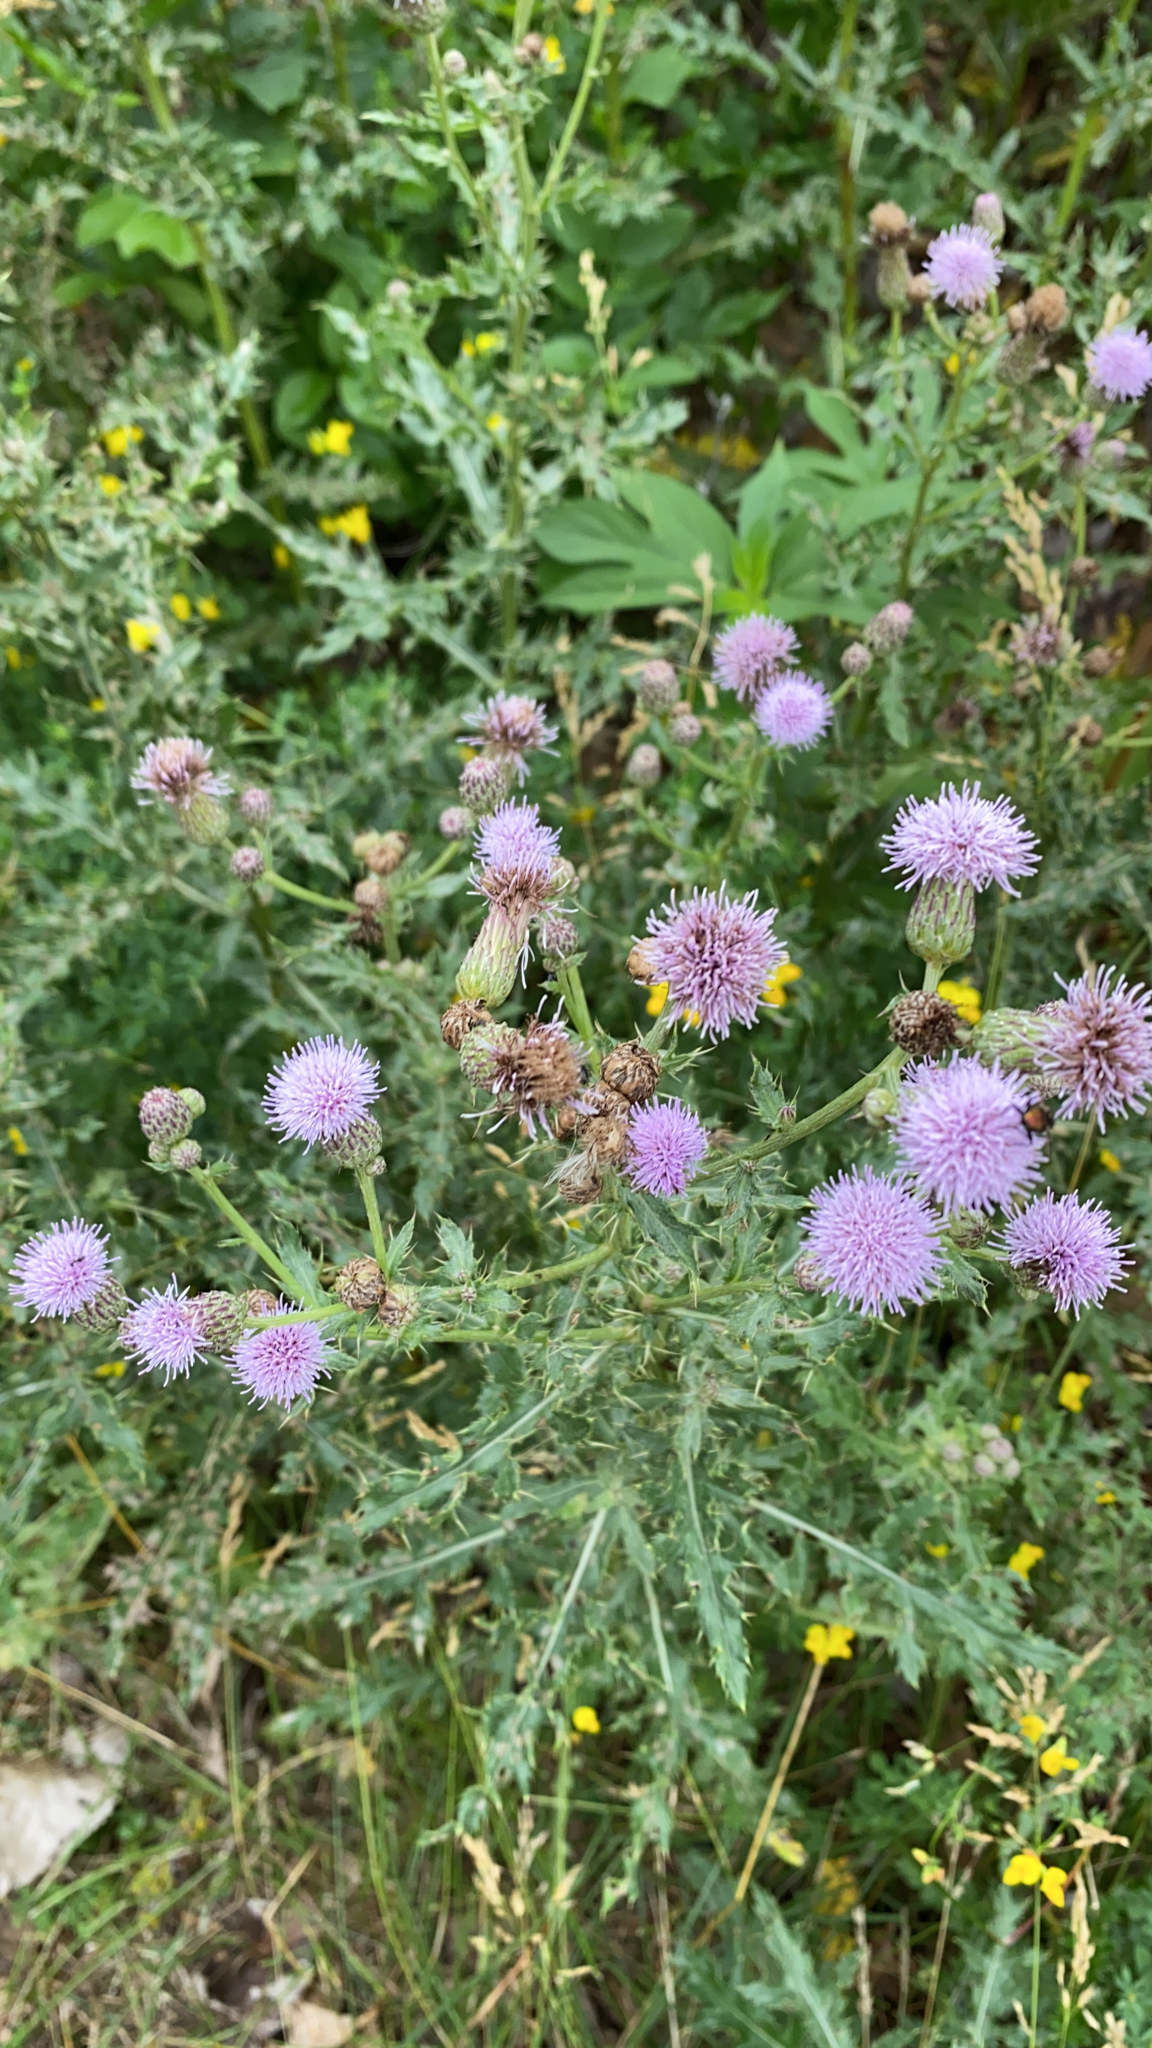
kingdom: Plantae
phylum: Tracheophyta
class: Magnoliopsida
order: Asterales
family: Asteraceae
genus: Cirsium
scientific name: Cirsium arvense
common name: Creeping thistle
